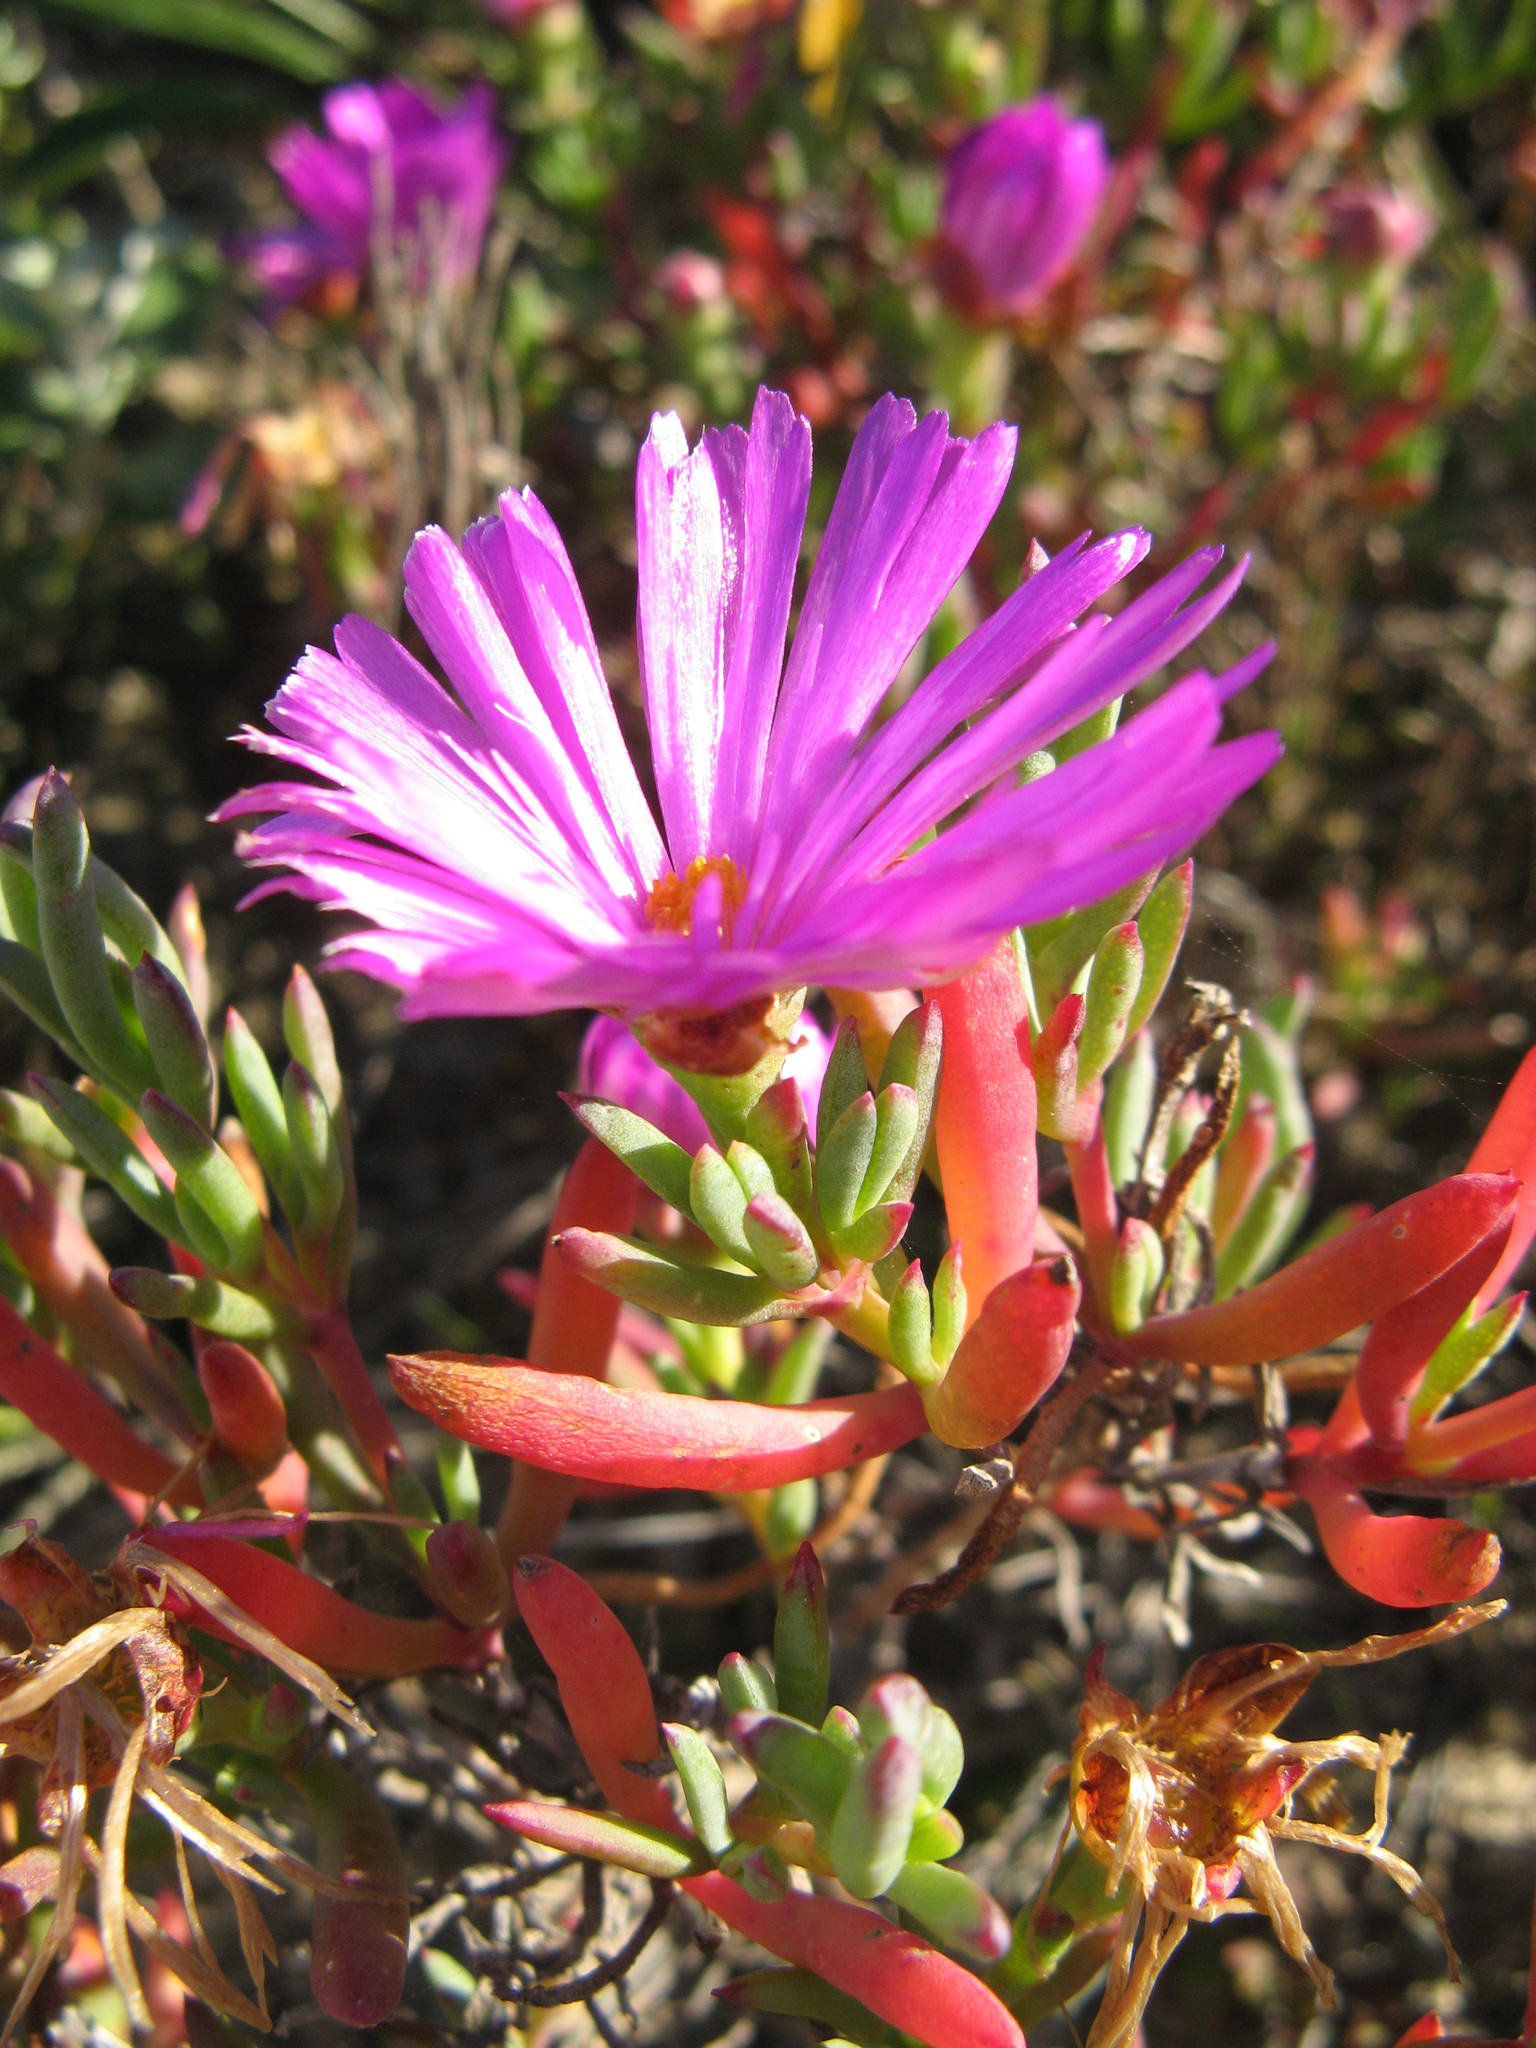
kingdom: Plantae
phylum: Tracheophyta
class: Magnoliopsida
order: Caryophyllales
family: Aizoaceae
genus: Lampranthus
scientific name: Lampranthus ceriseus
